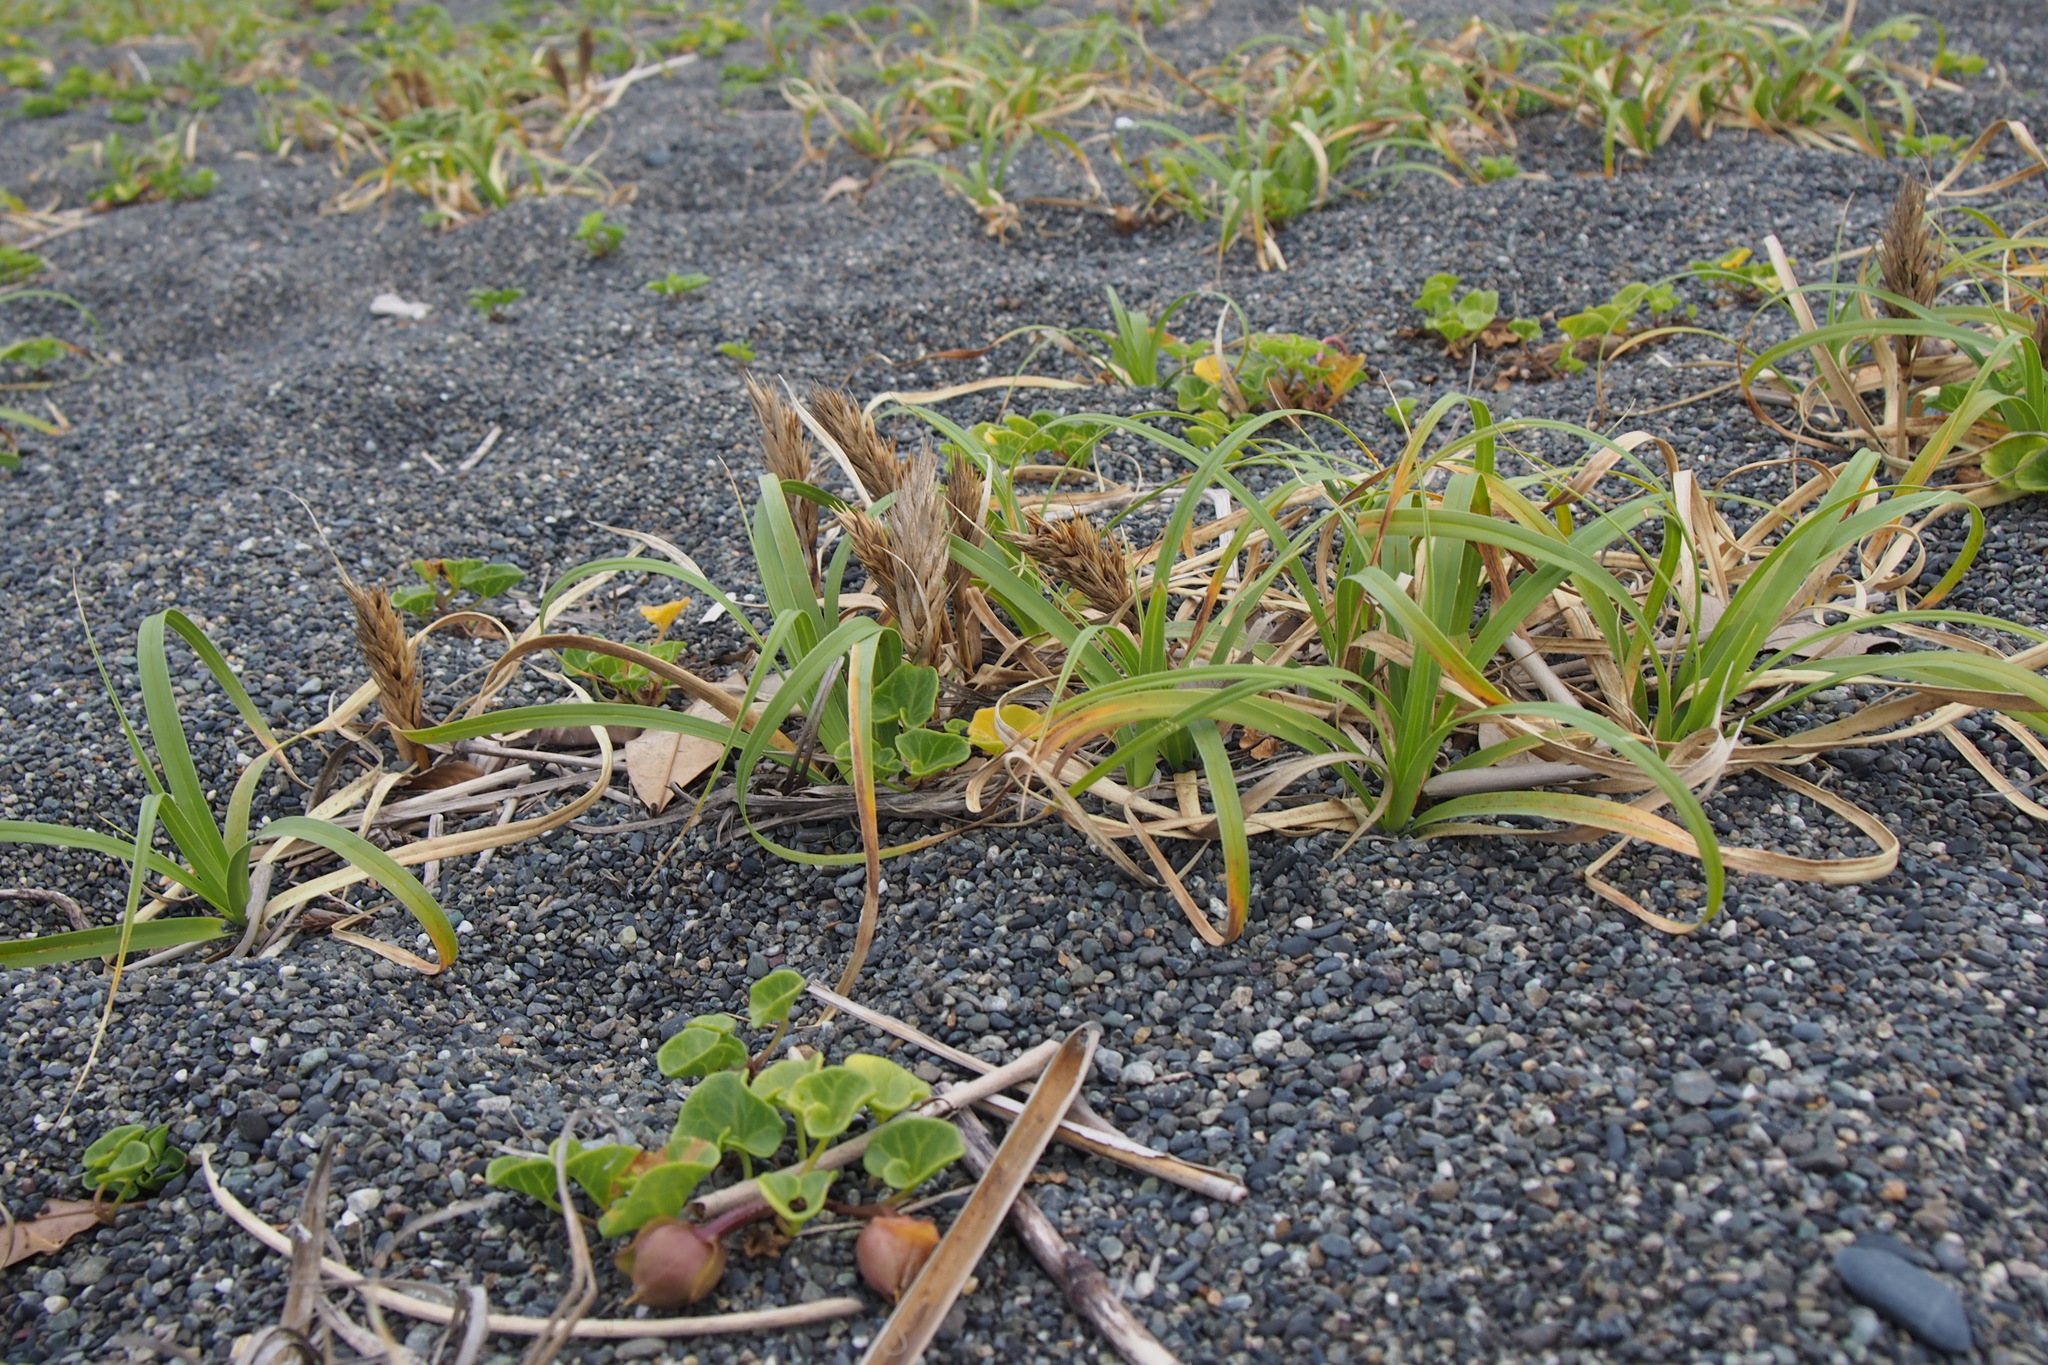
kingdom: Plantae
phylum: Tracheophyta
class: Liliopsida
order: Poales
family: Cyperaceae
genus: Carex
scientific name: Carex kobomugi
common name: Japanese sedge
